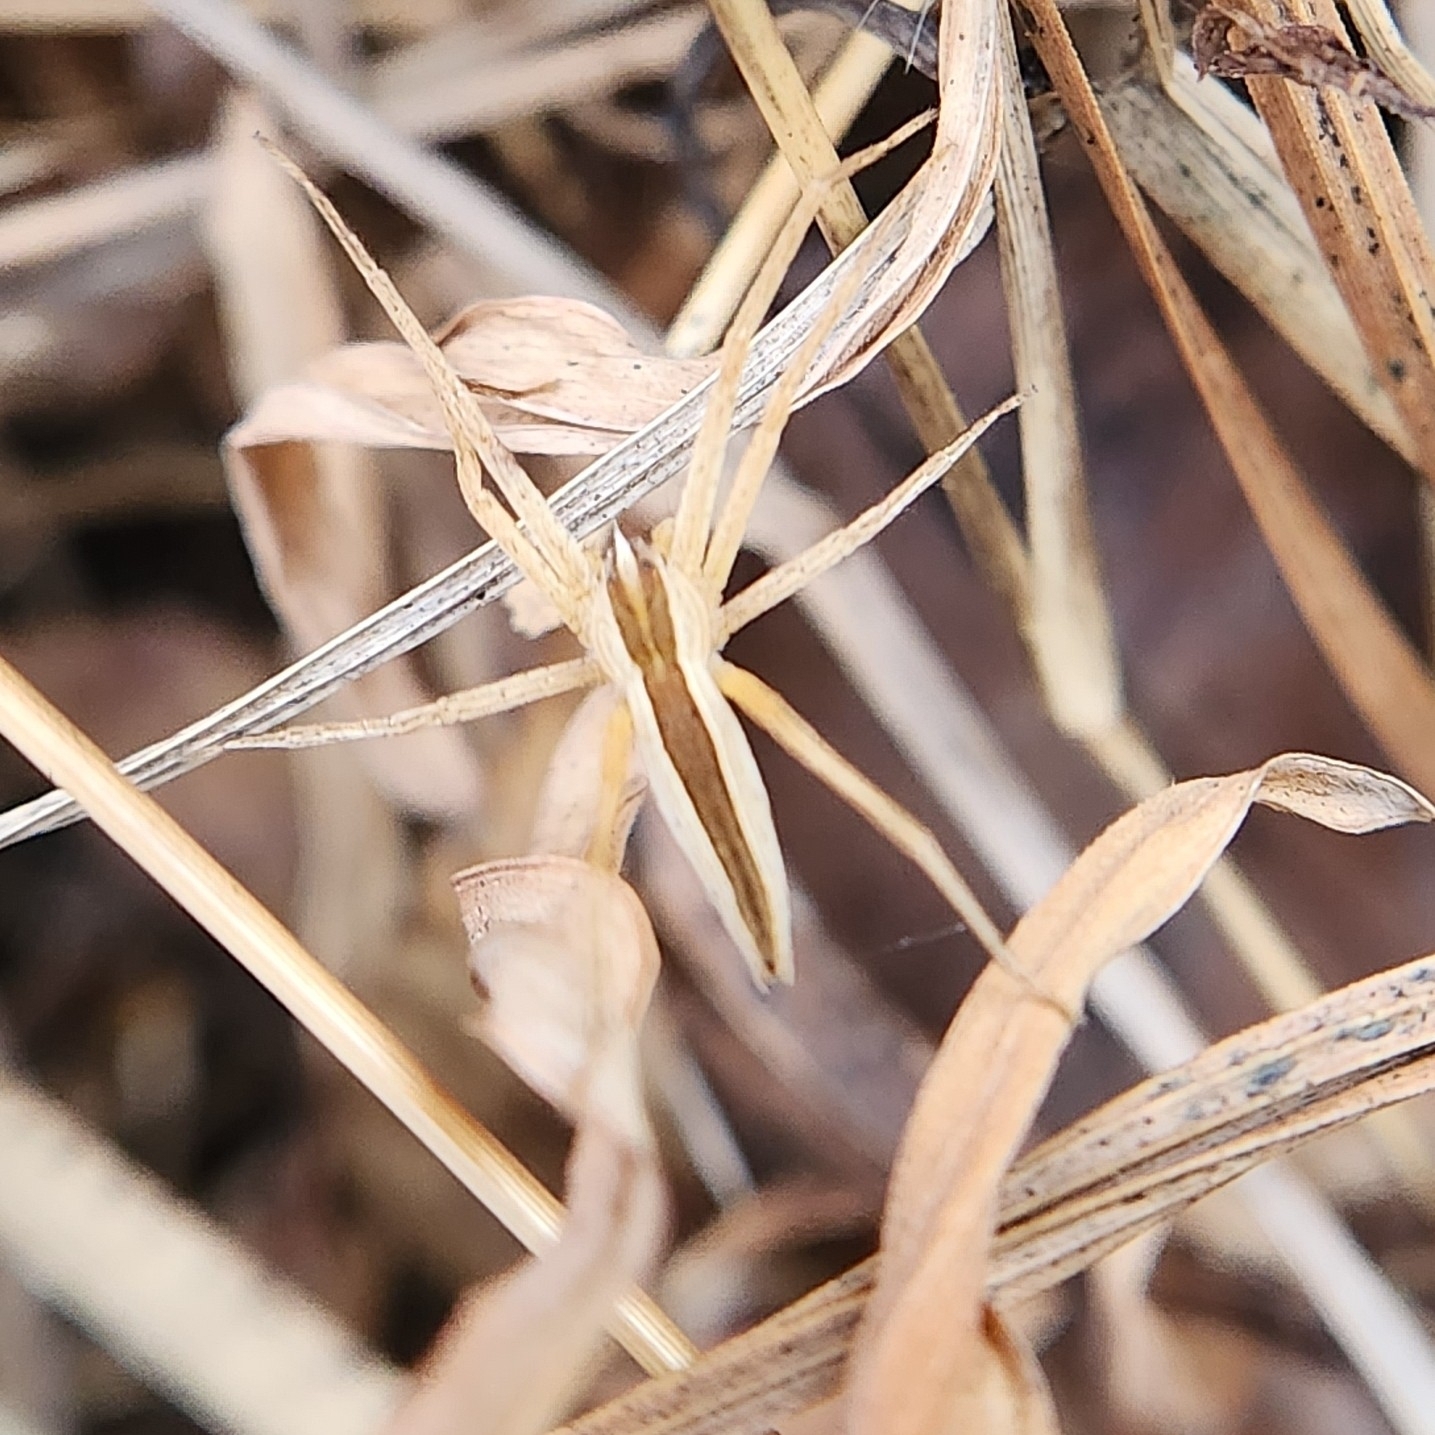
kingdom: Animalia
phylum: Arthropoda
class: Arachnida
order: Araneae
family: Pisauridae
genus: Pisaurina
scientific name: Pisaurina dubia
